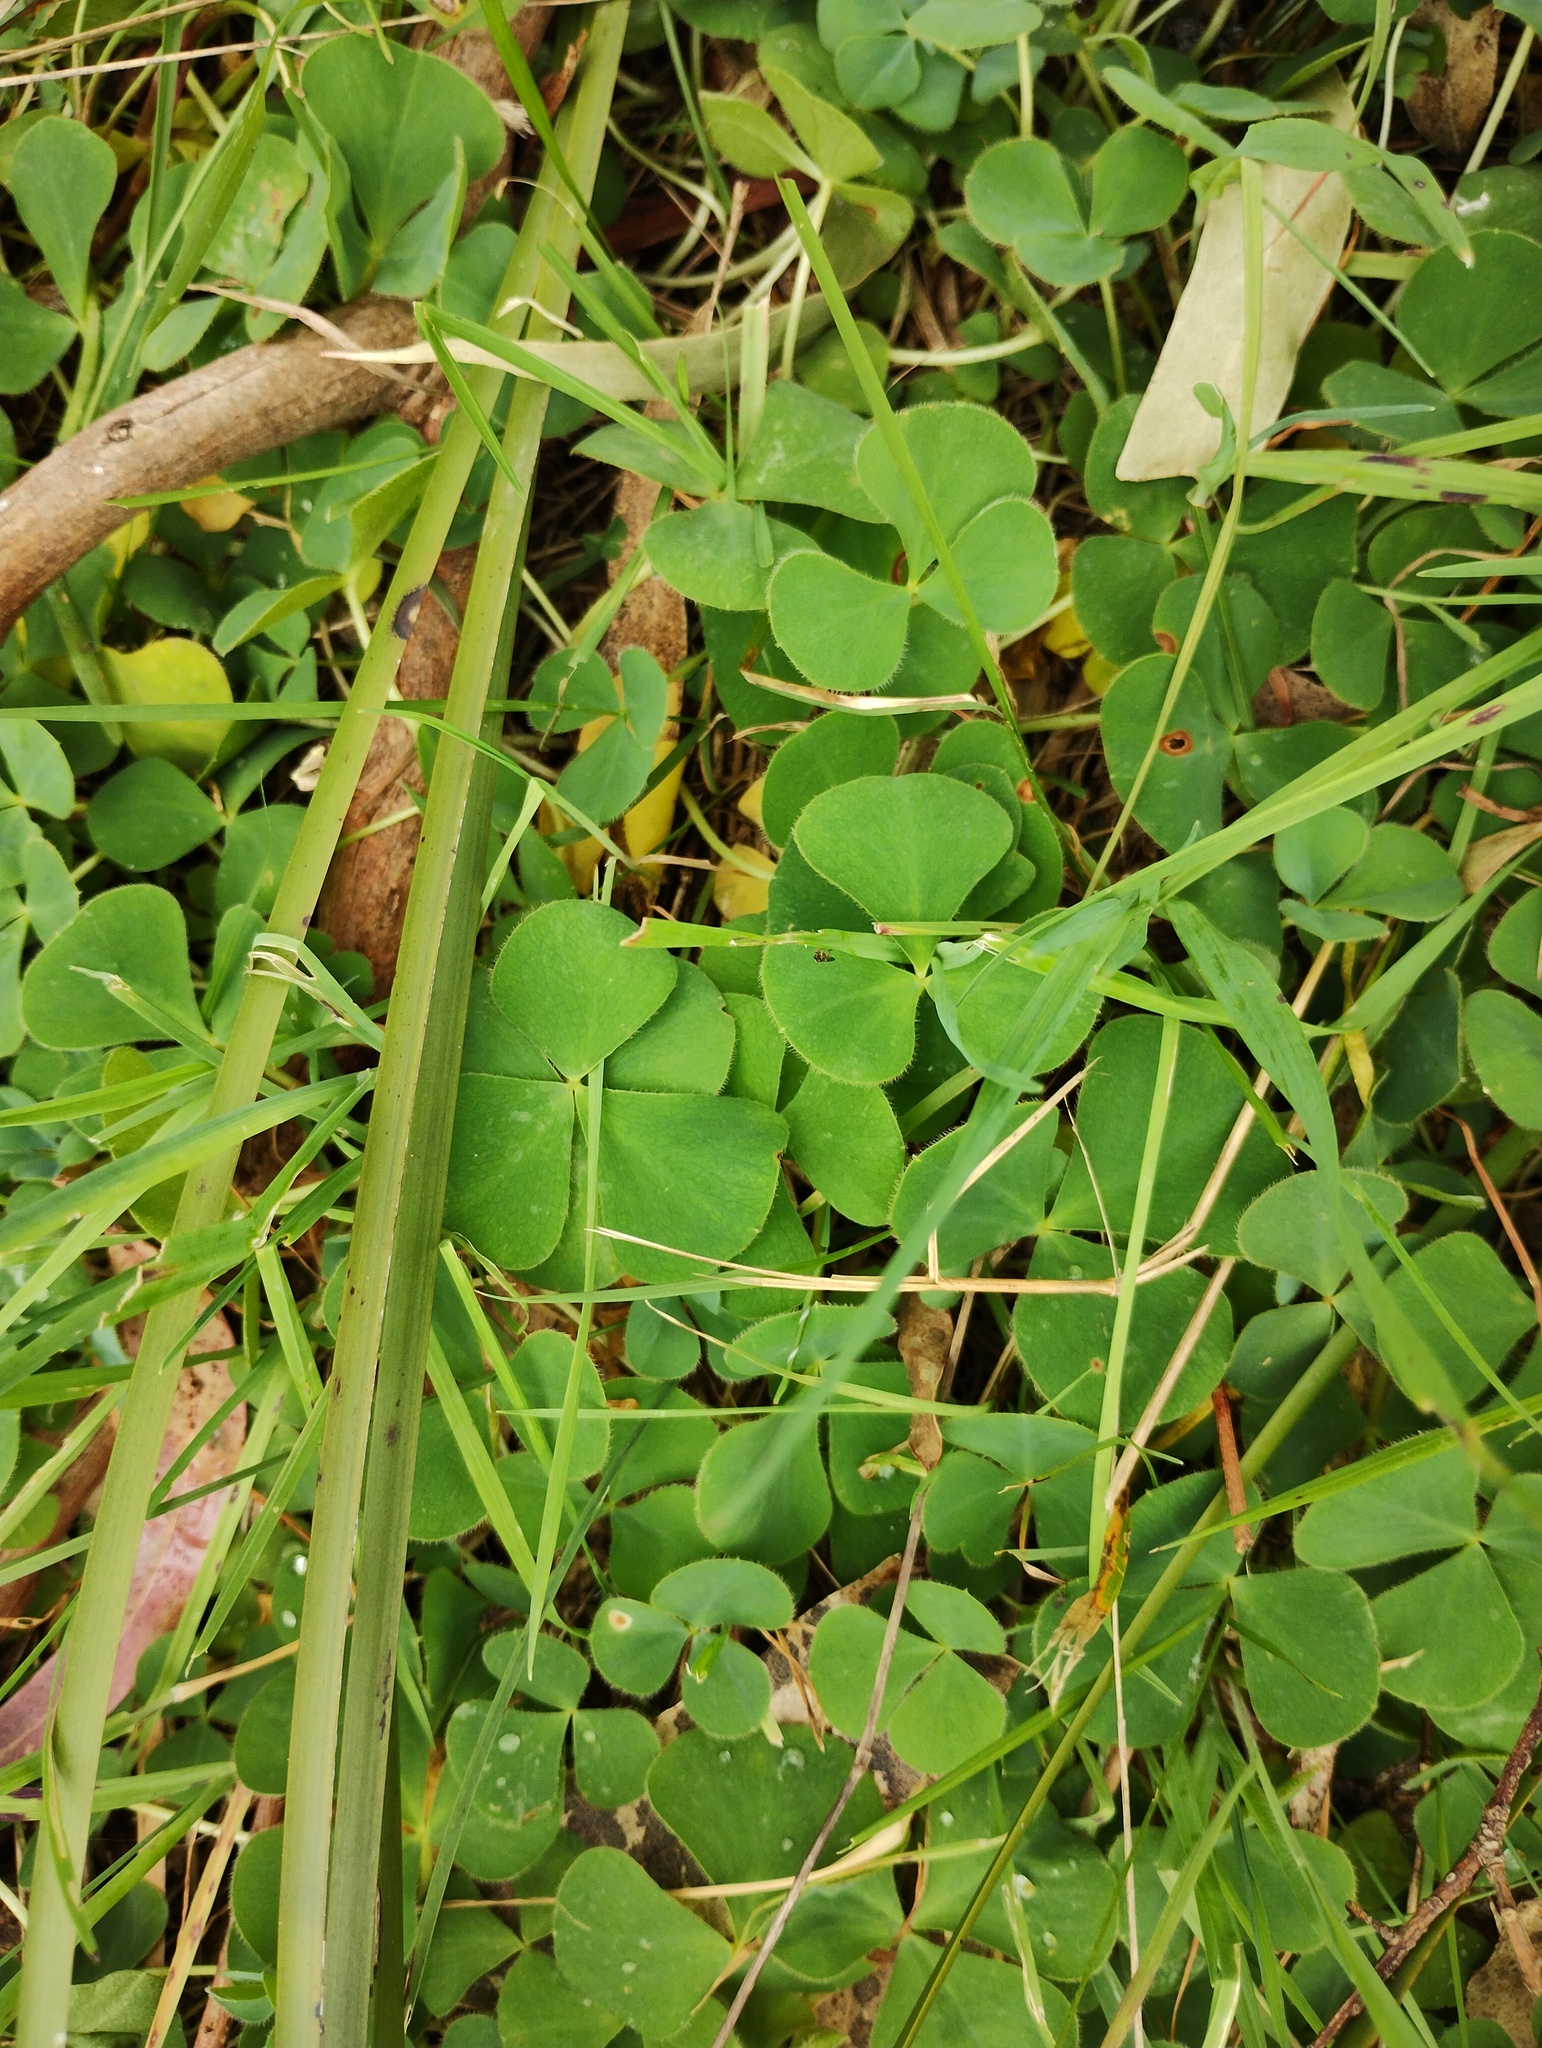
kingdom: Plantae
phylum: Tracheophyta
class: Magnoliopsida
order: Oxalidales
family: Oxalidaceae
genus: Oxalis
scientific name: Oxalis purpurea
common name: Purple woodsorrel
